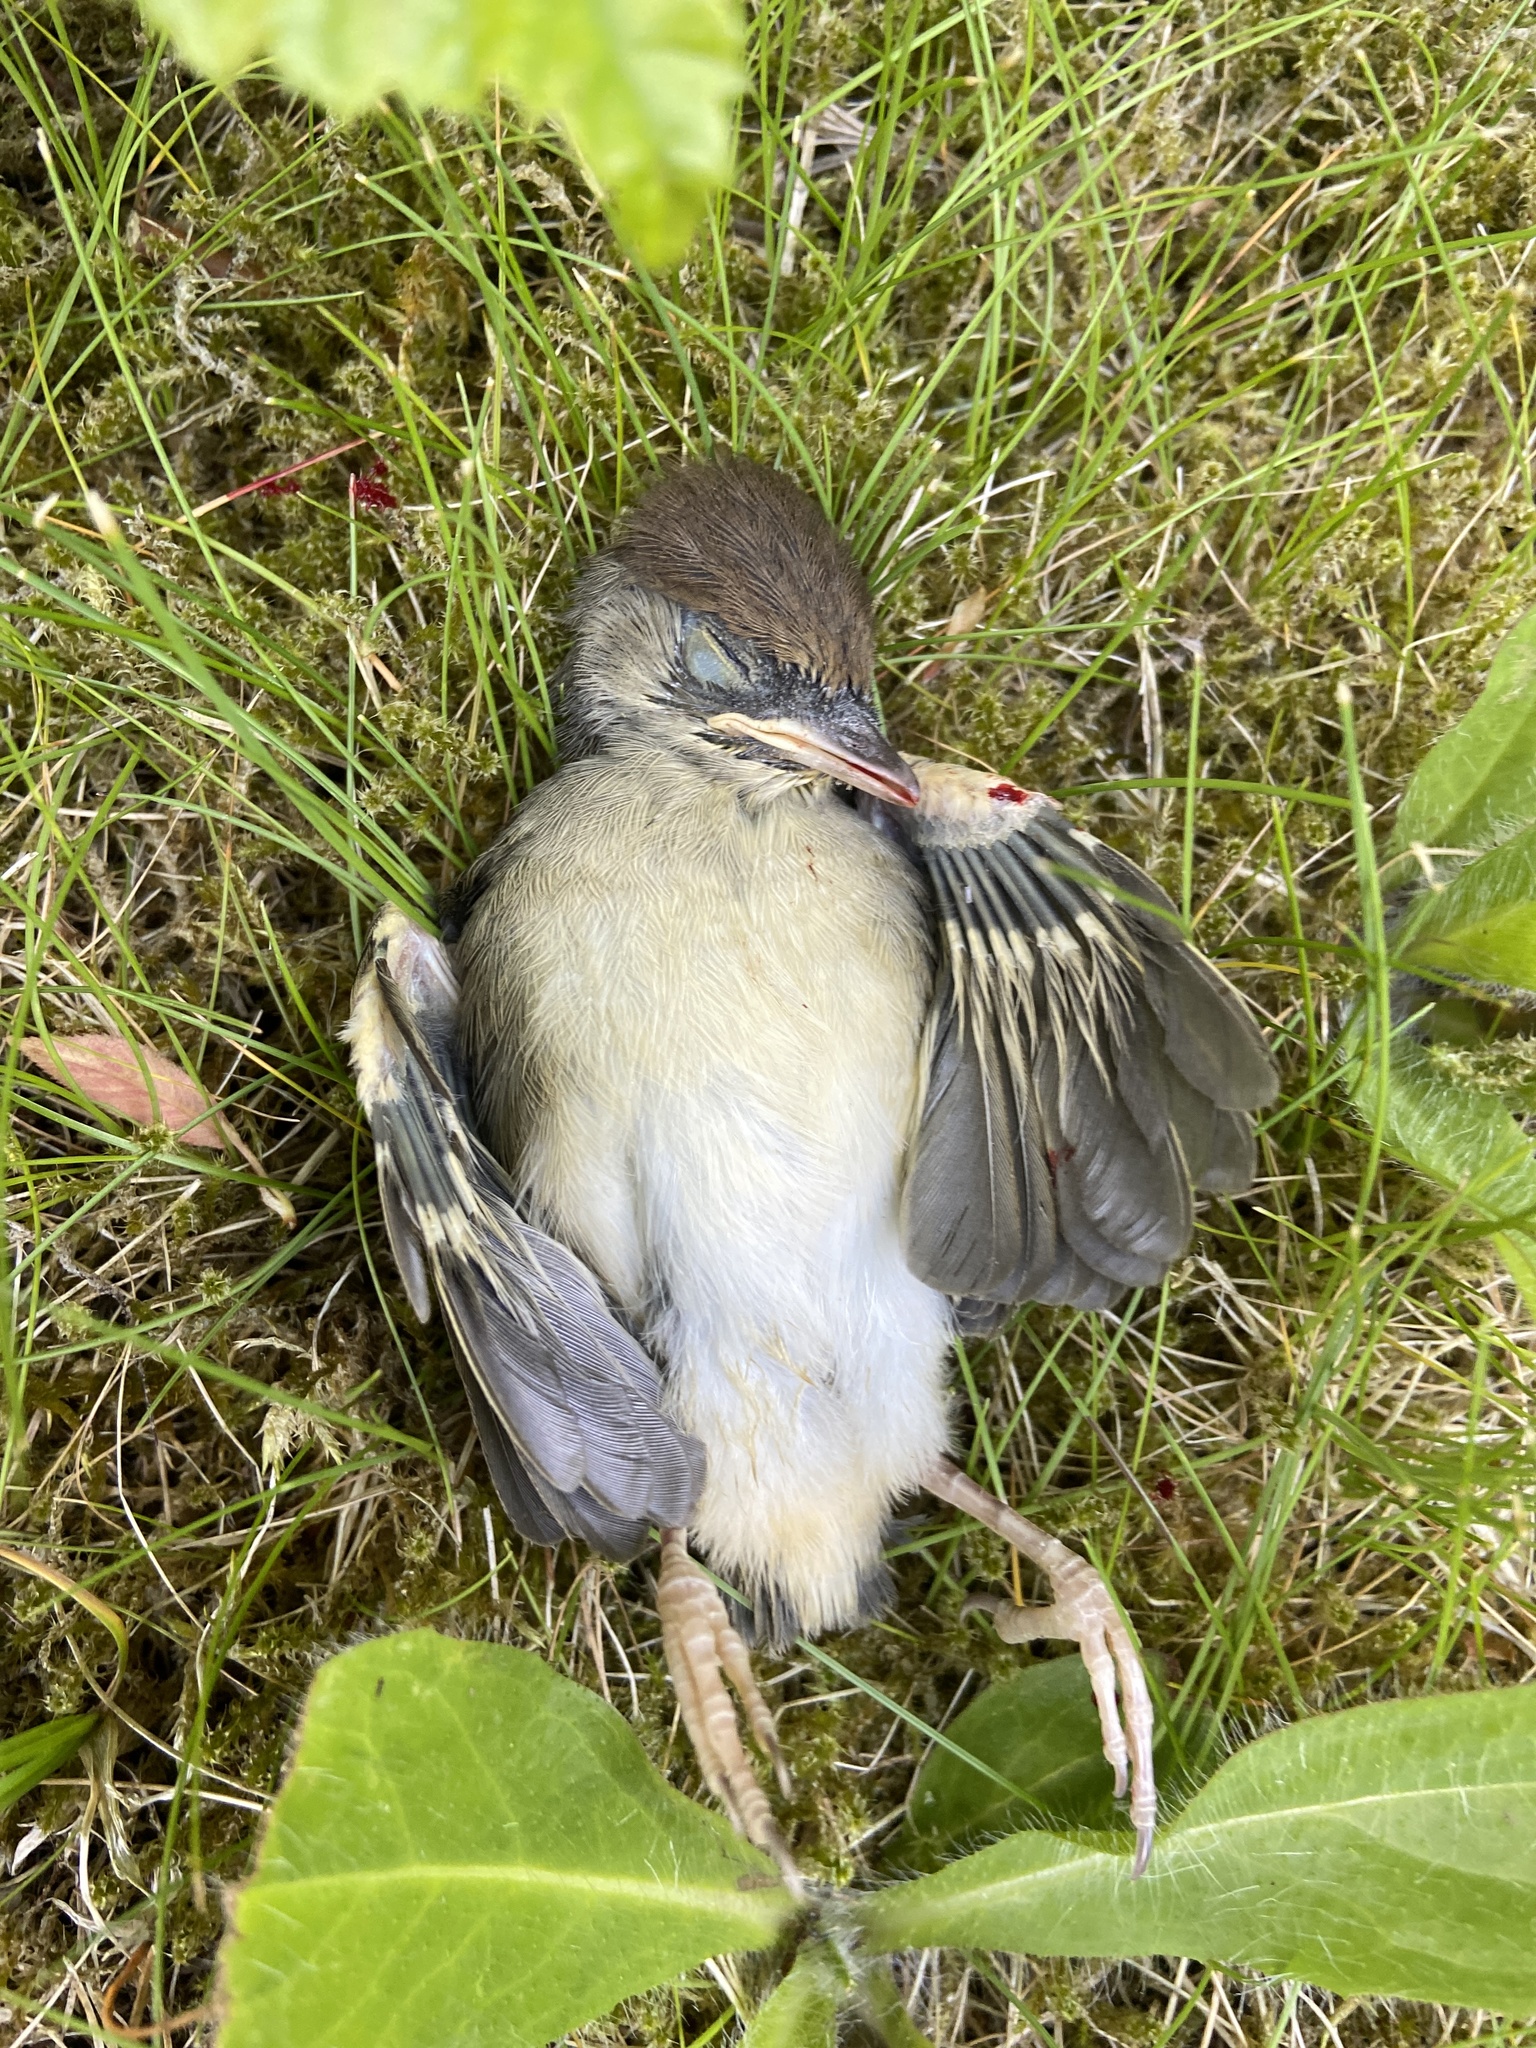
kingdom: Animalia
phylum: Chordata
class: Aves
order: Passeriformes
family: Sylviidae
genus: Sylvia
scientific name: Sylvia atricapilla
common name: Eurasian blackcap
